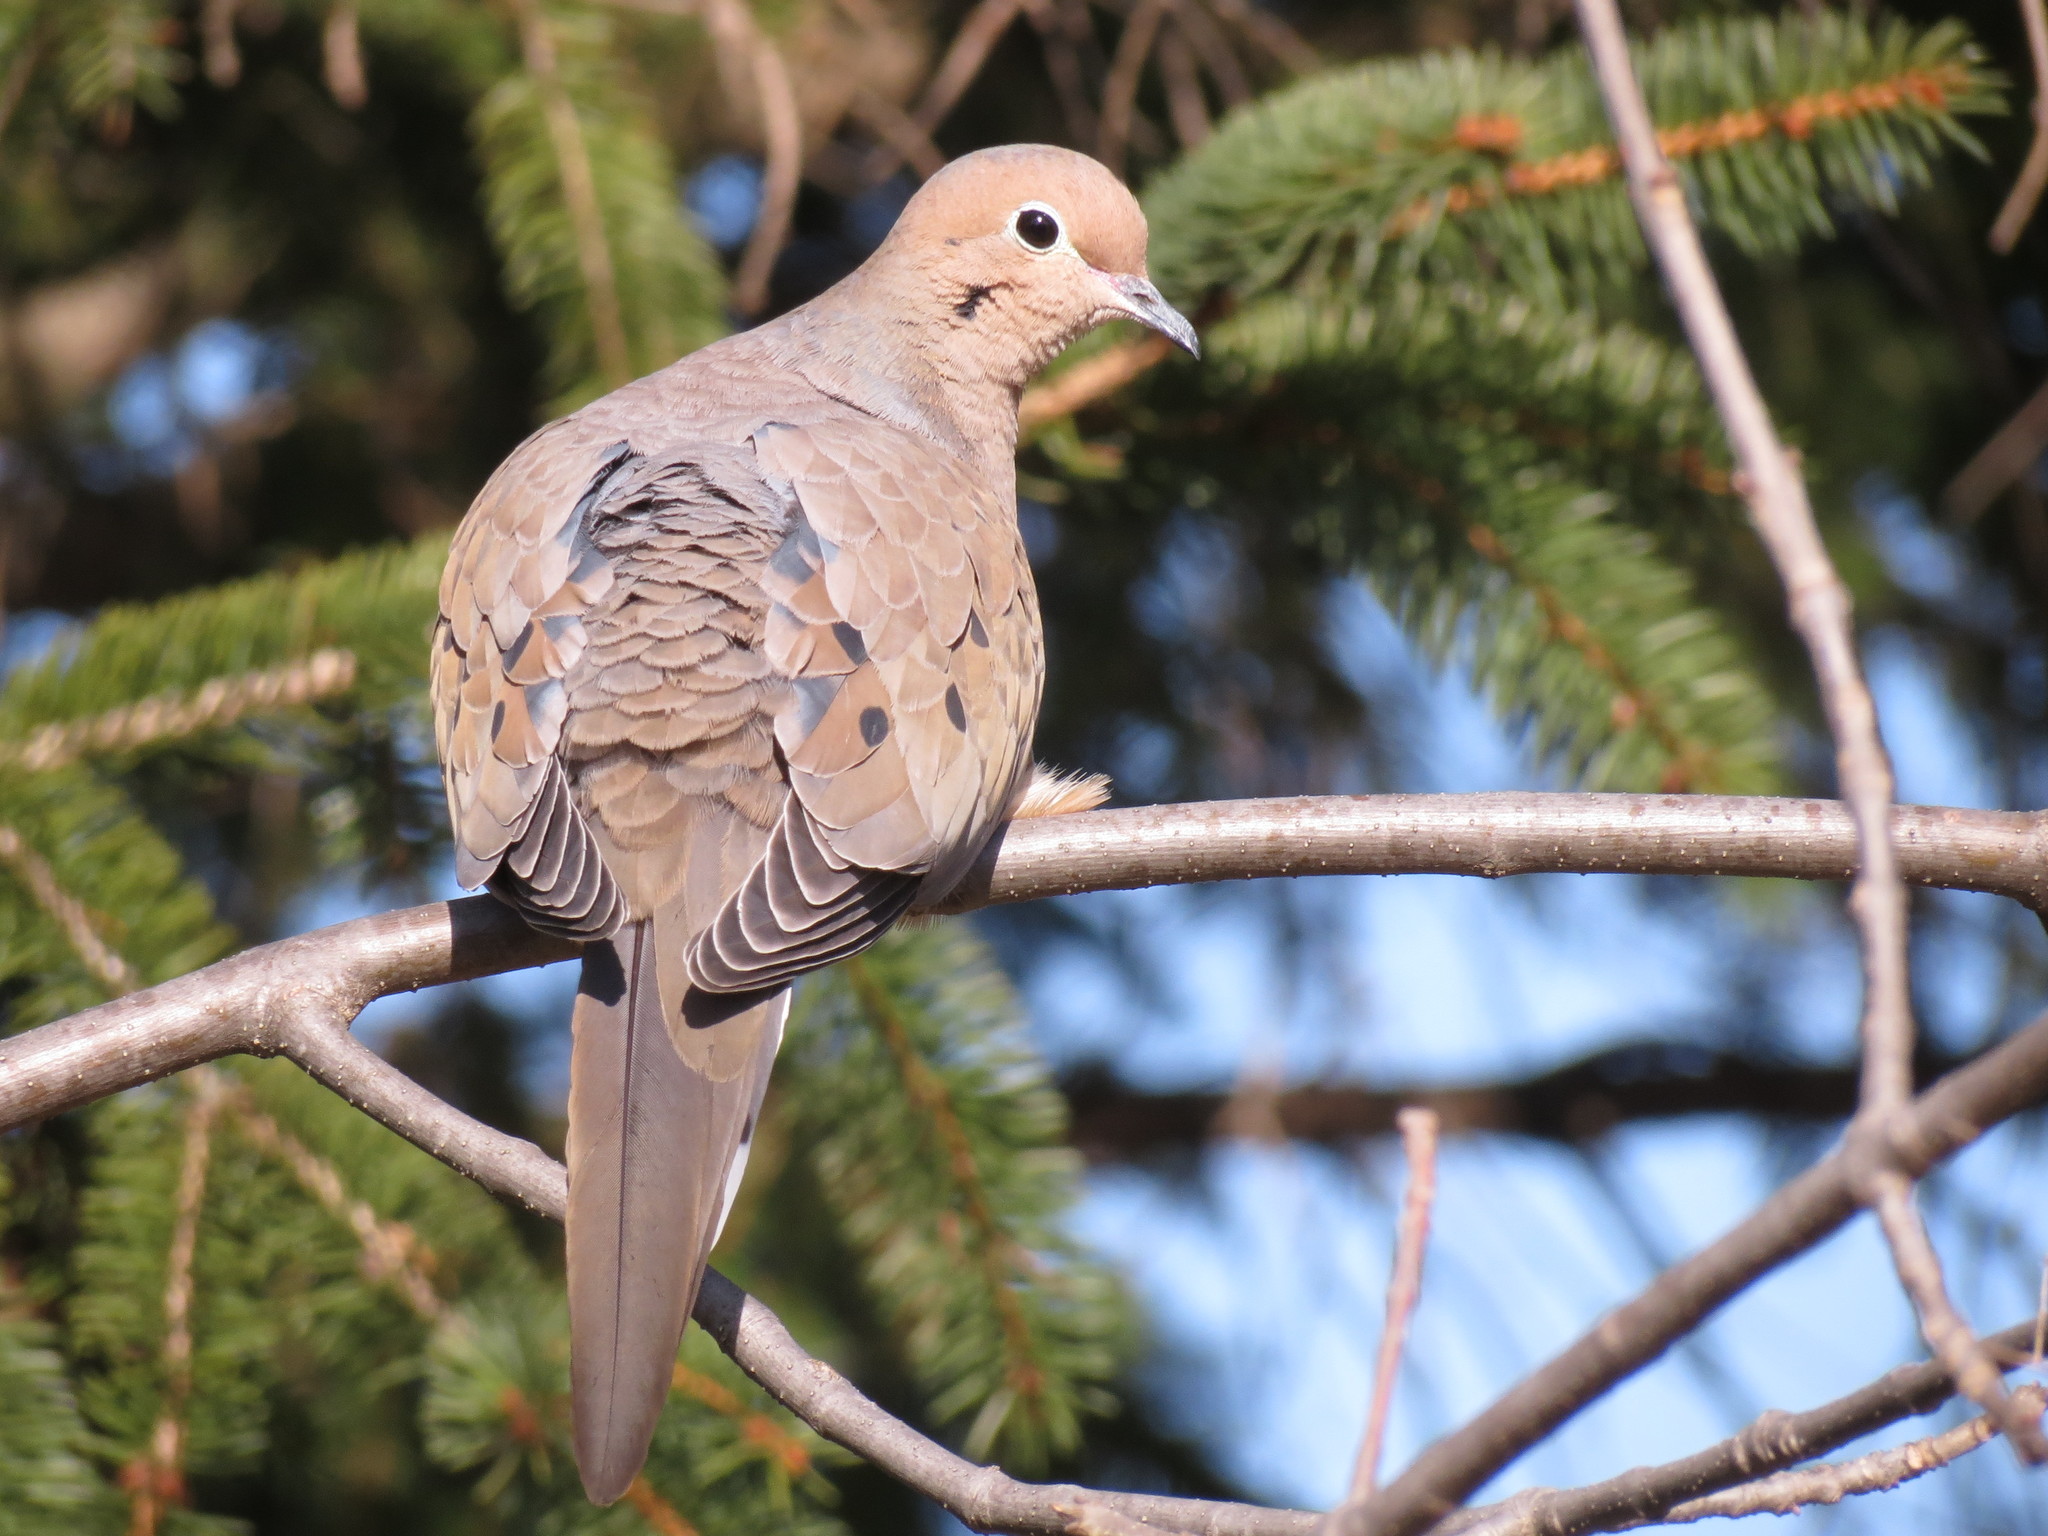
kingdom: Animalia
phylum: Chordata
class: Aves
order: Columbiformes
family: Columbidae
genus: Zenaida
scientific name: Zenaida macroura
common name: Mourning dove
